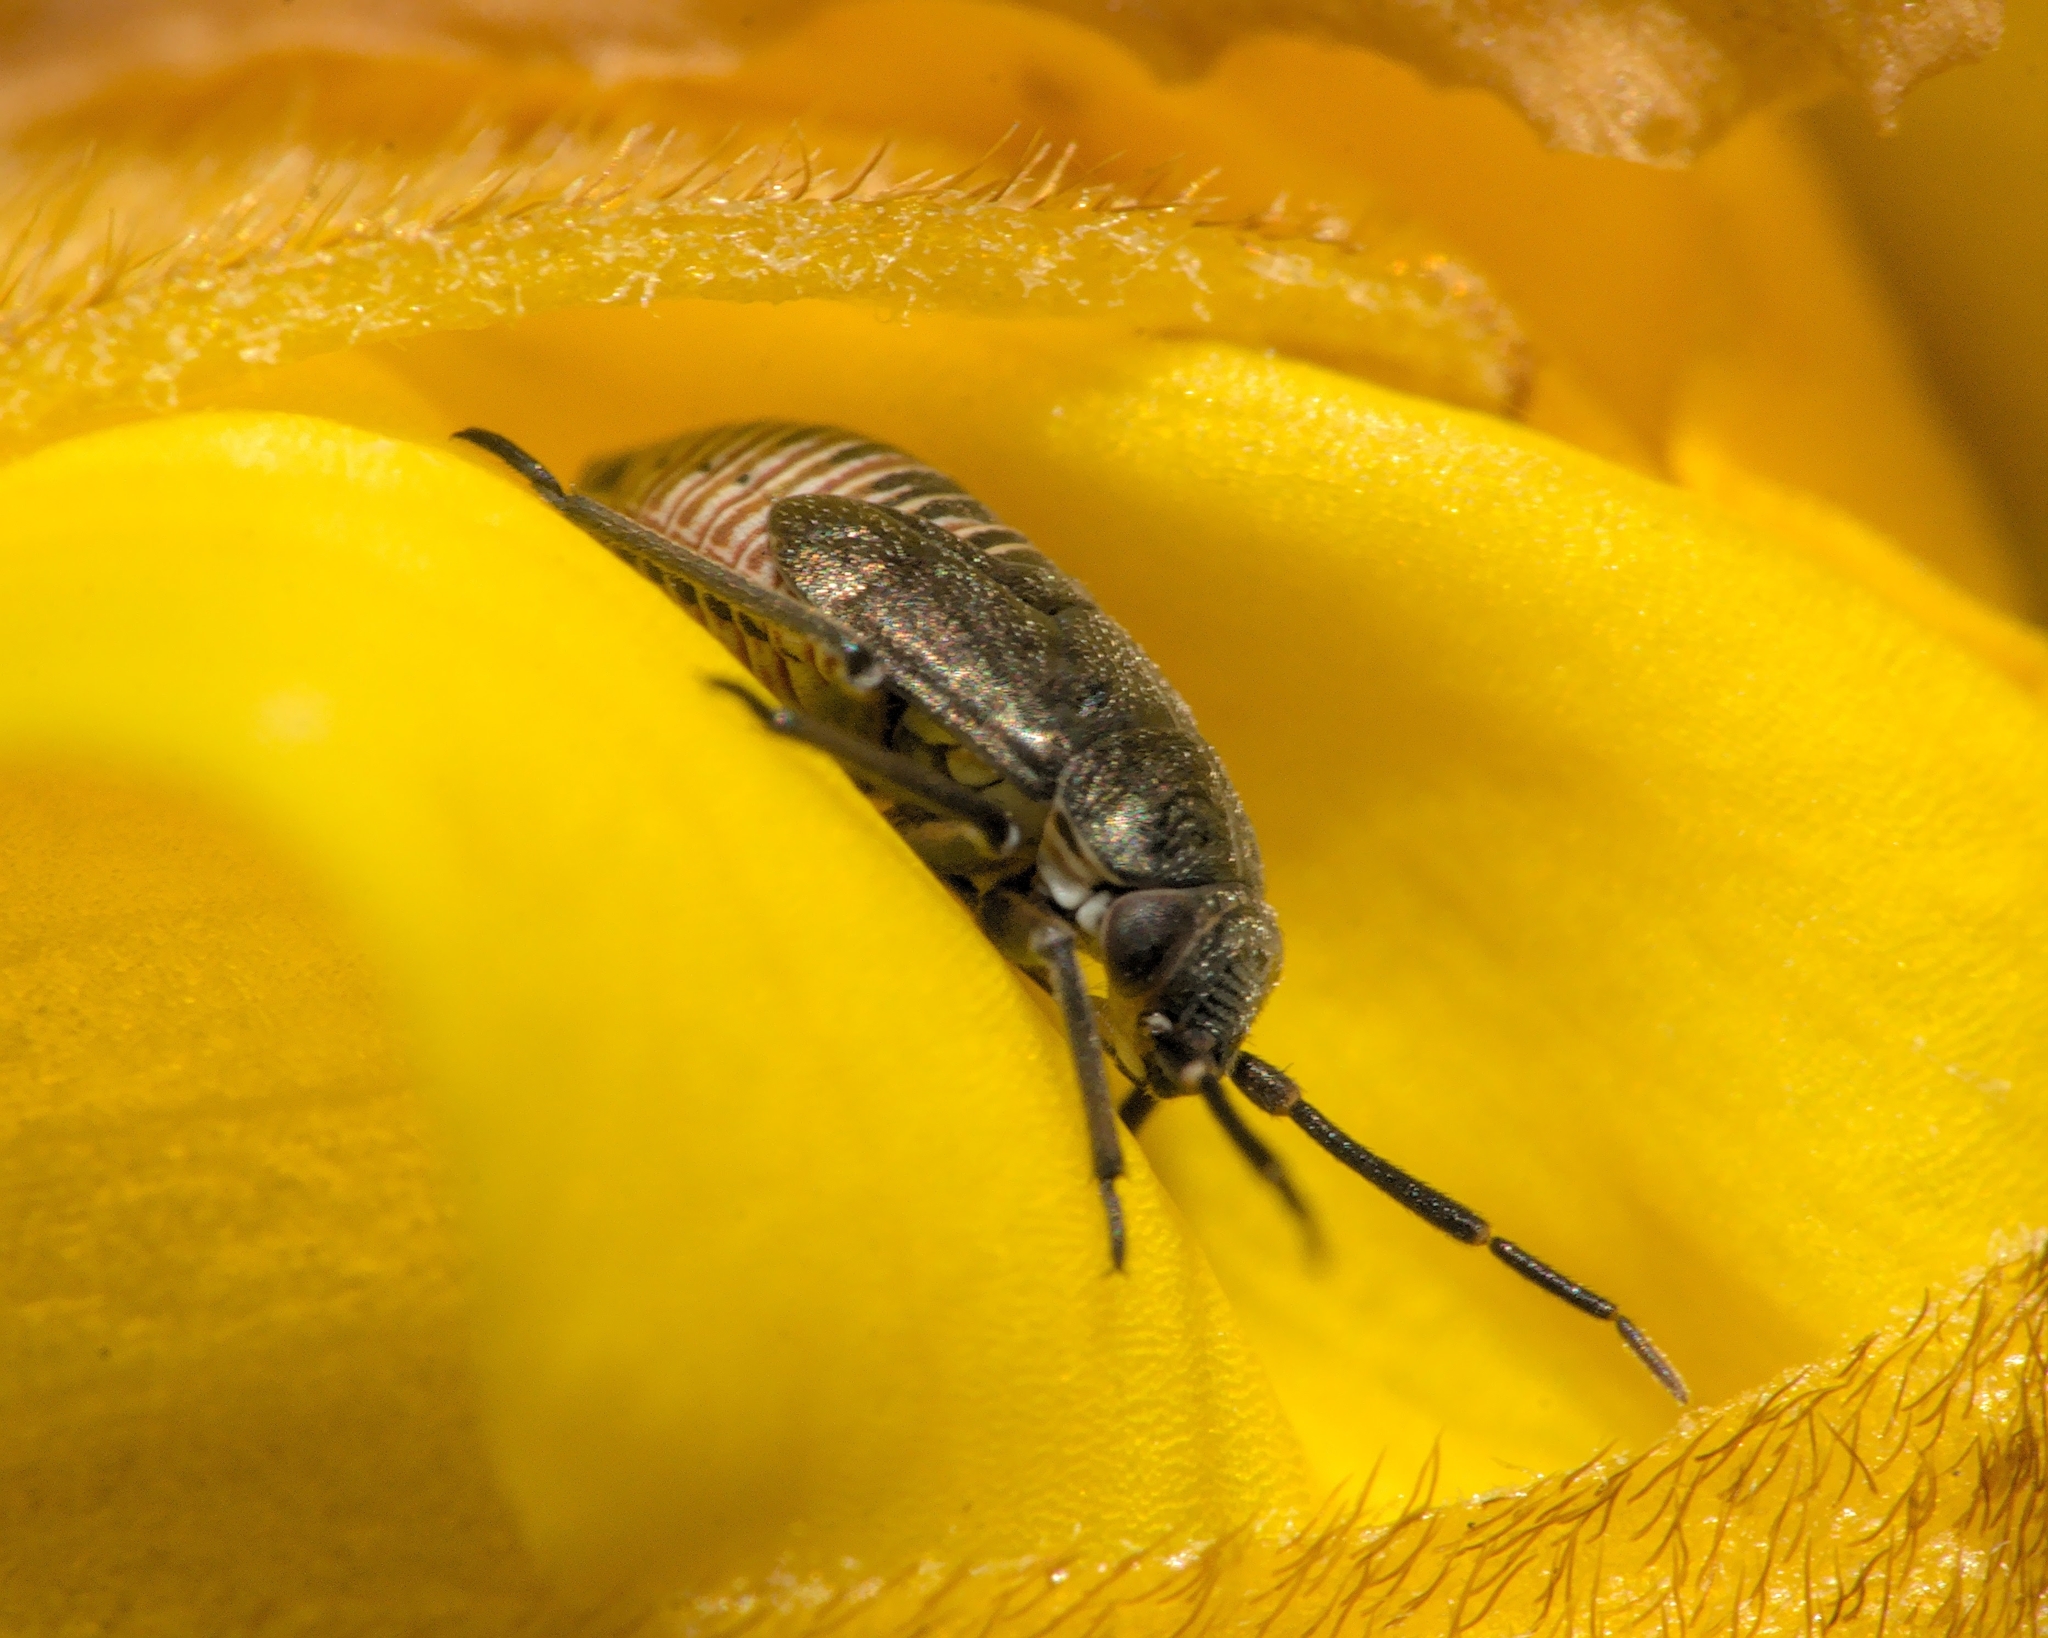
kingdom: Animalia
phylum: Arthropoda
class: Insecta
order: Hemiptera
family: Miridae
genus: Heterocordylus
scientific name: Heterocordylus tibialis
